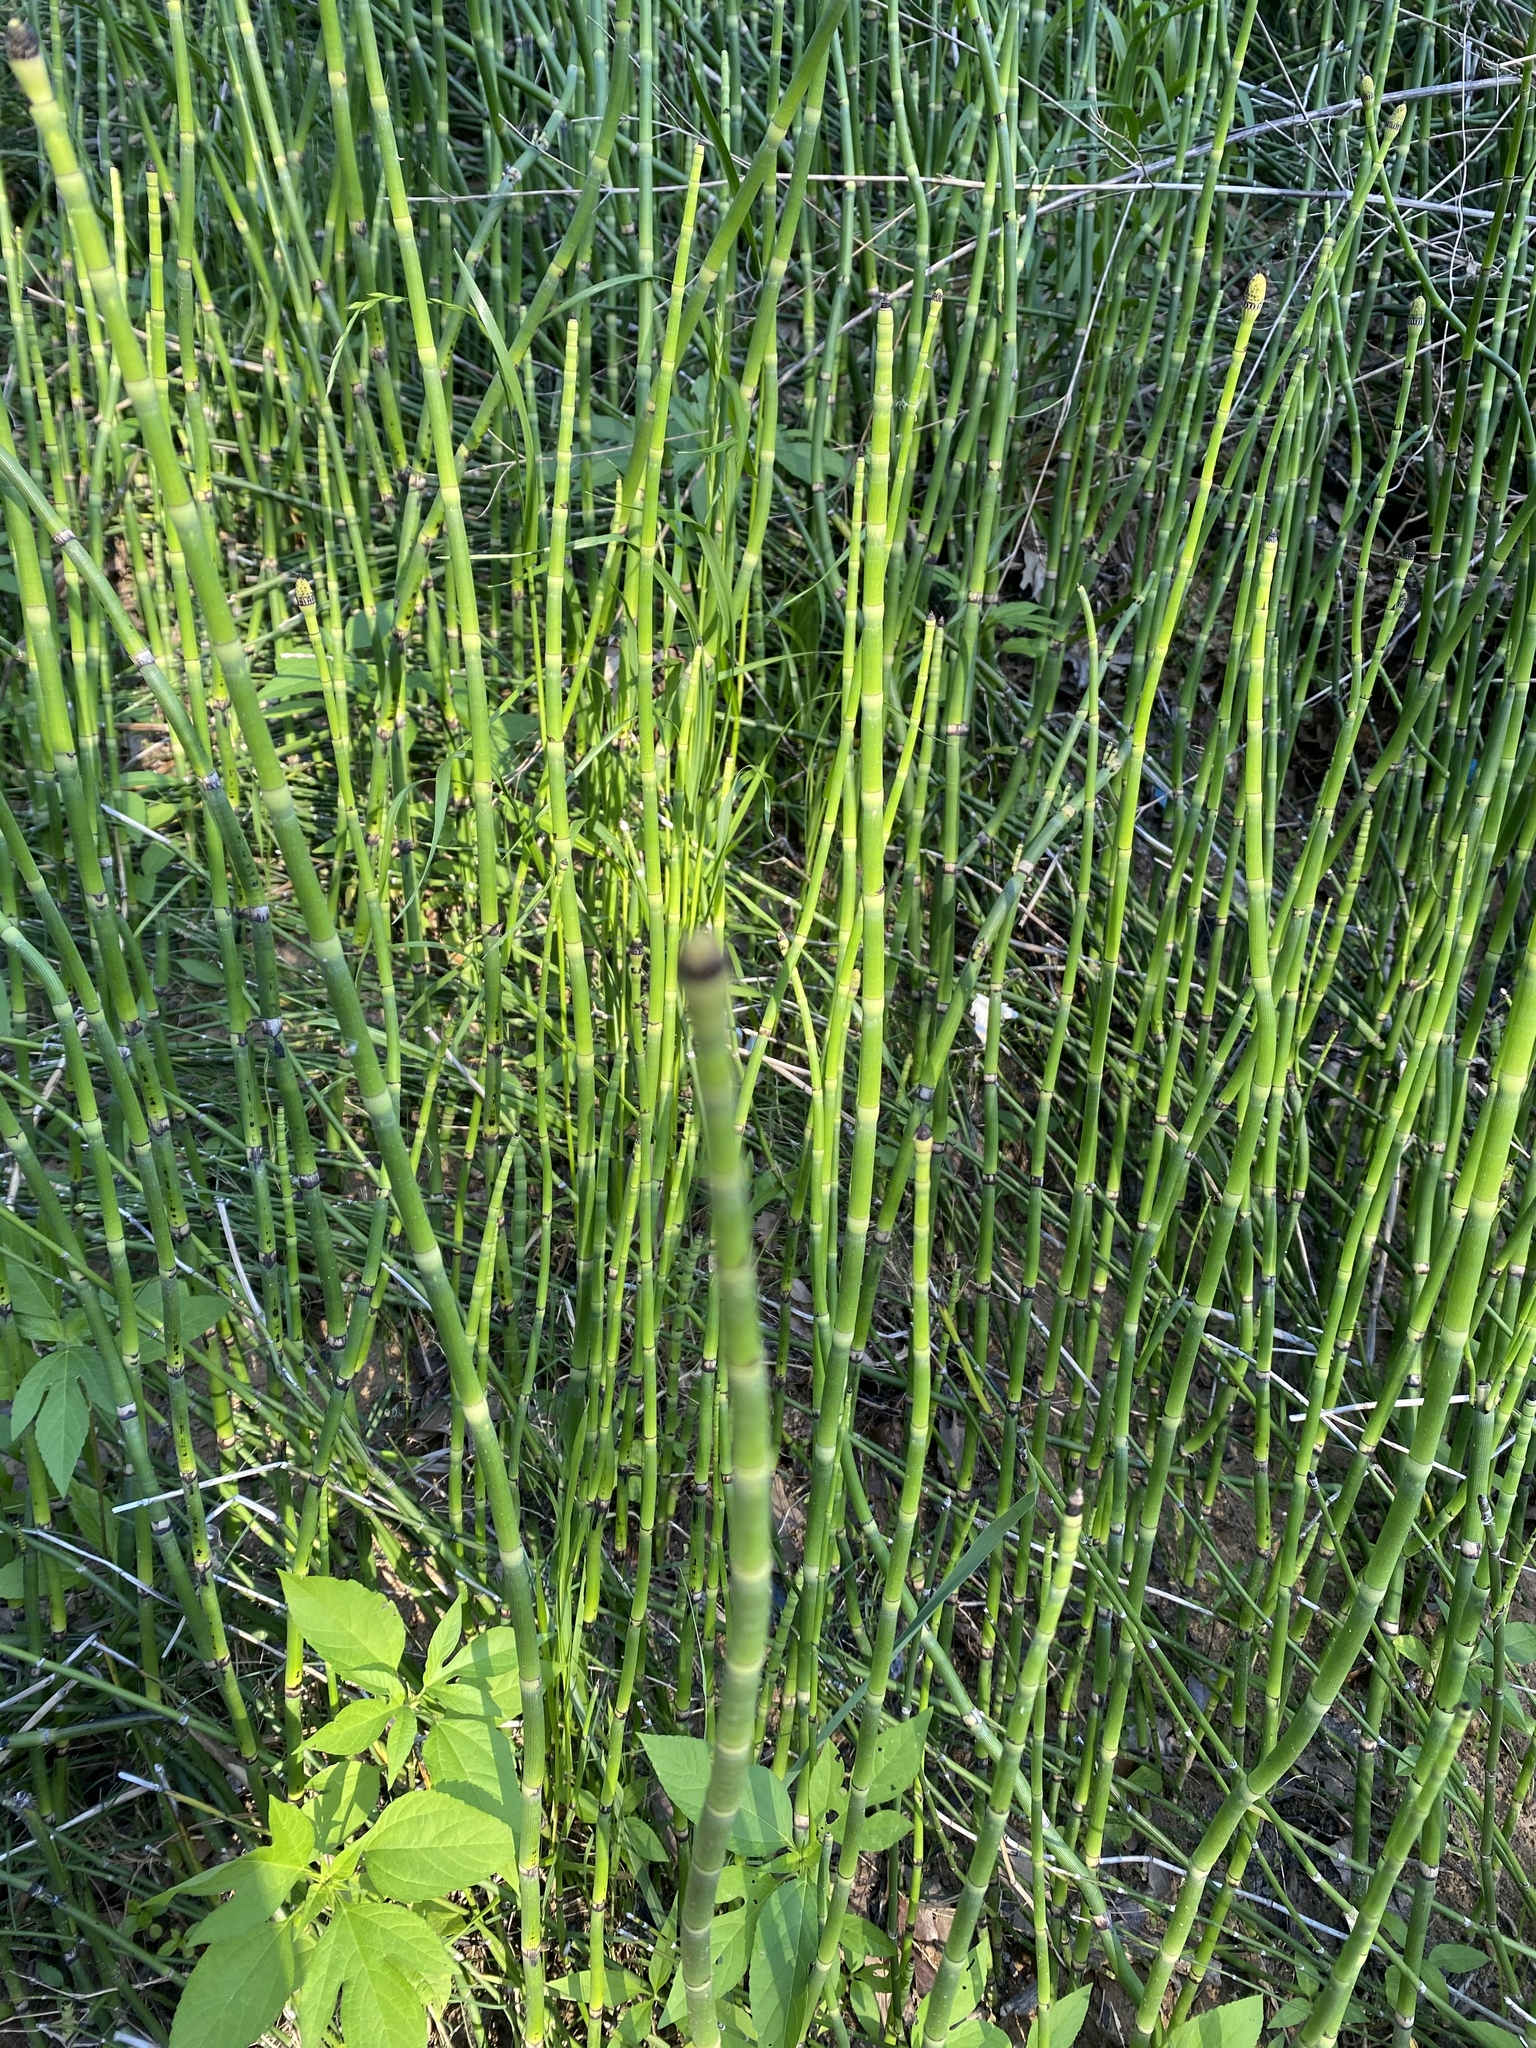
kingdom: Plantae
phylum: Tracheophyta
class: Polypodiopsida
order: Equisetales
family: Equisetaceae
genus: Equisetum
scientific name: Equisetum hyemale
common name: Rough horsetail
